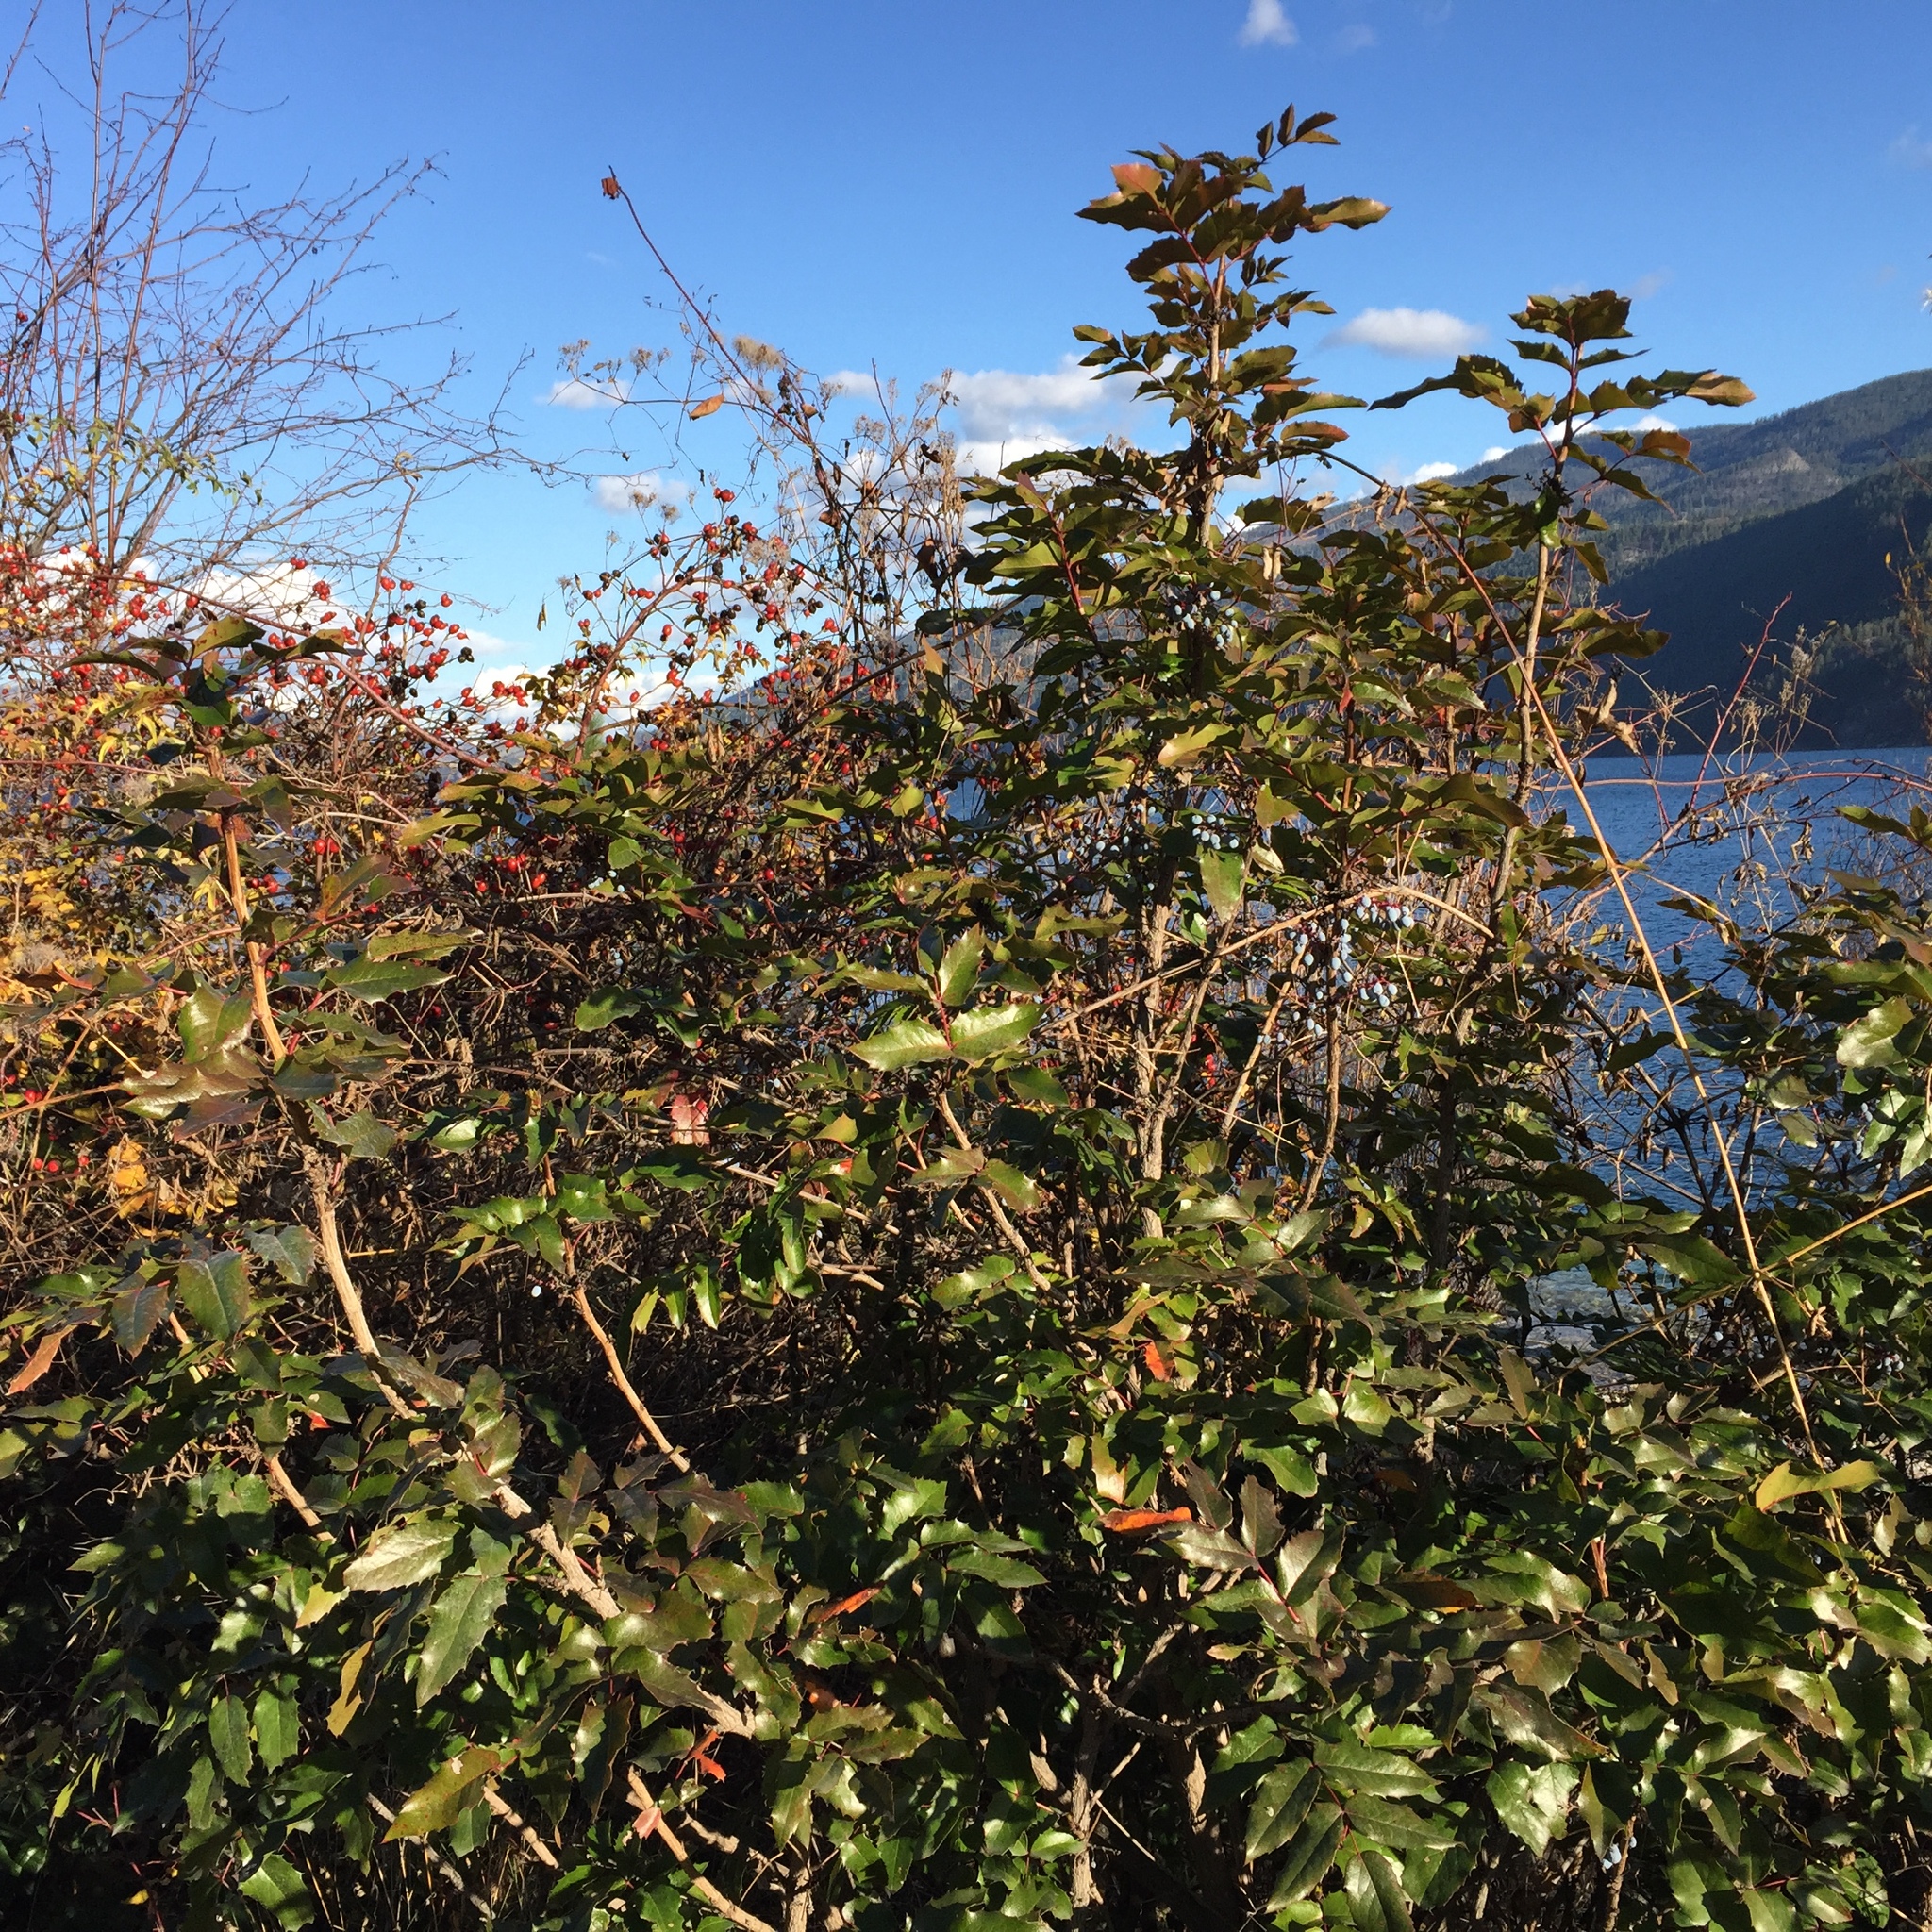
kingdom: Plantae
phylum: Tracheophyta
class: Magnoliopsida
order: Ranunculales
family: Berberidaceae
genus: Mahonia
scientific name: Mahonia aquifolium
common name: Oregon-grape
